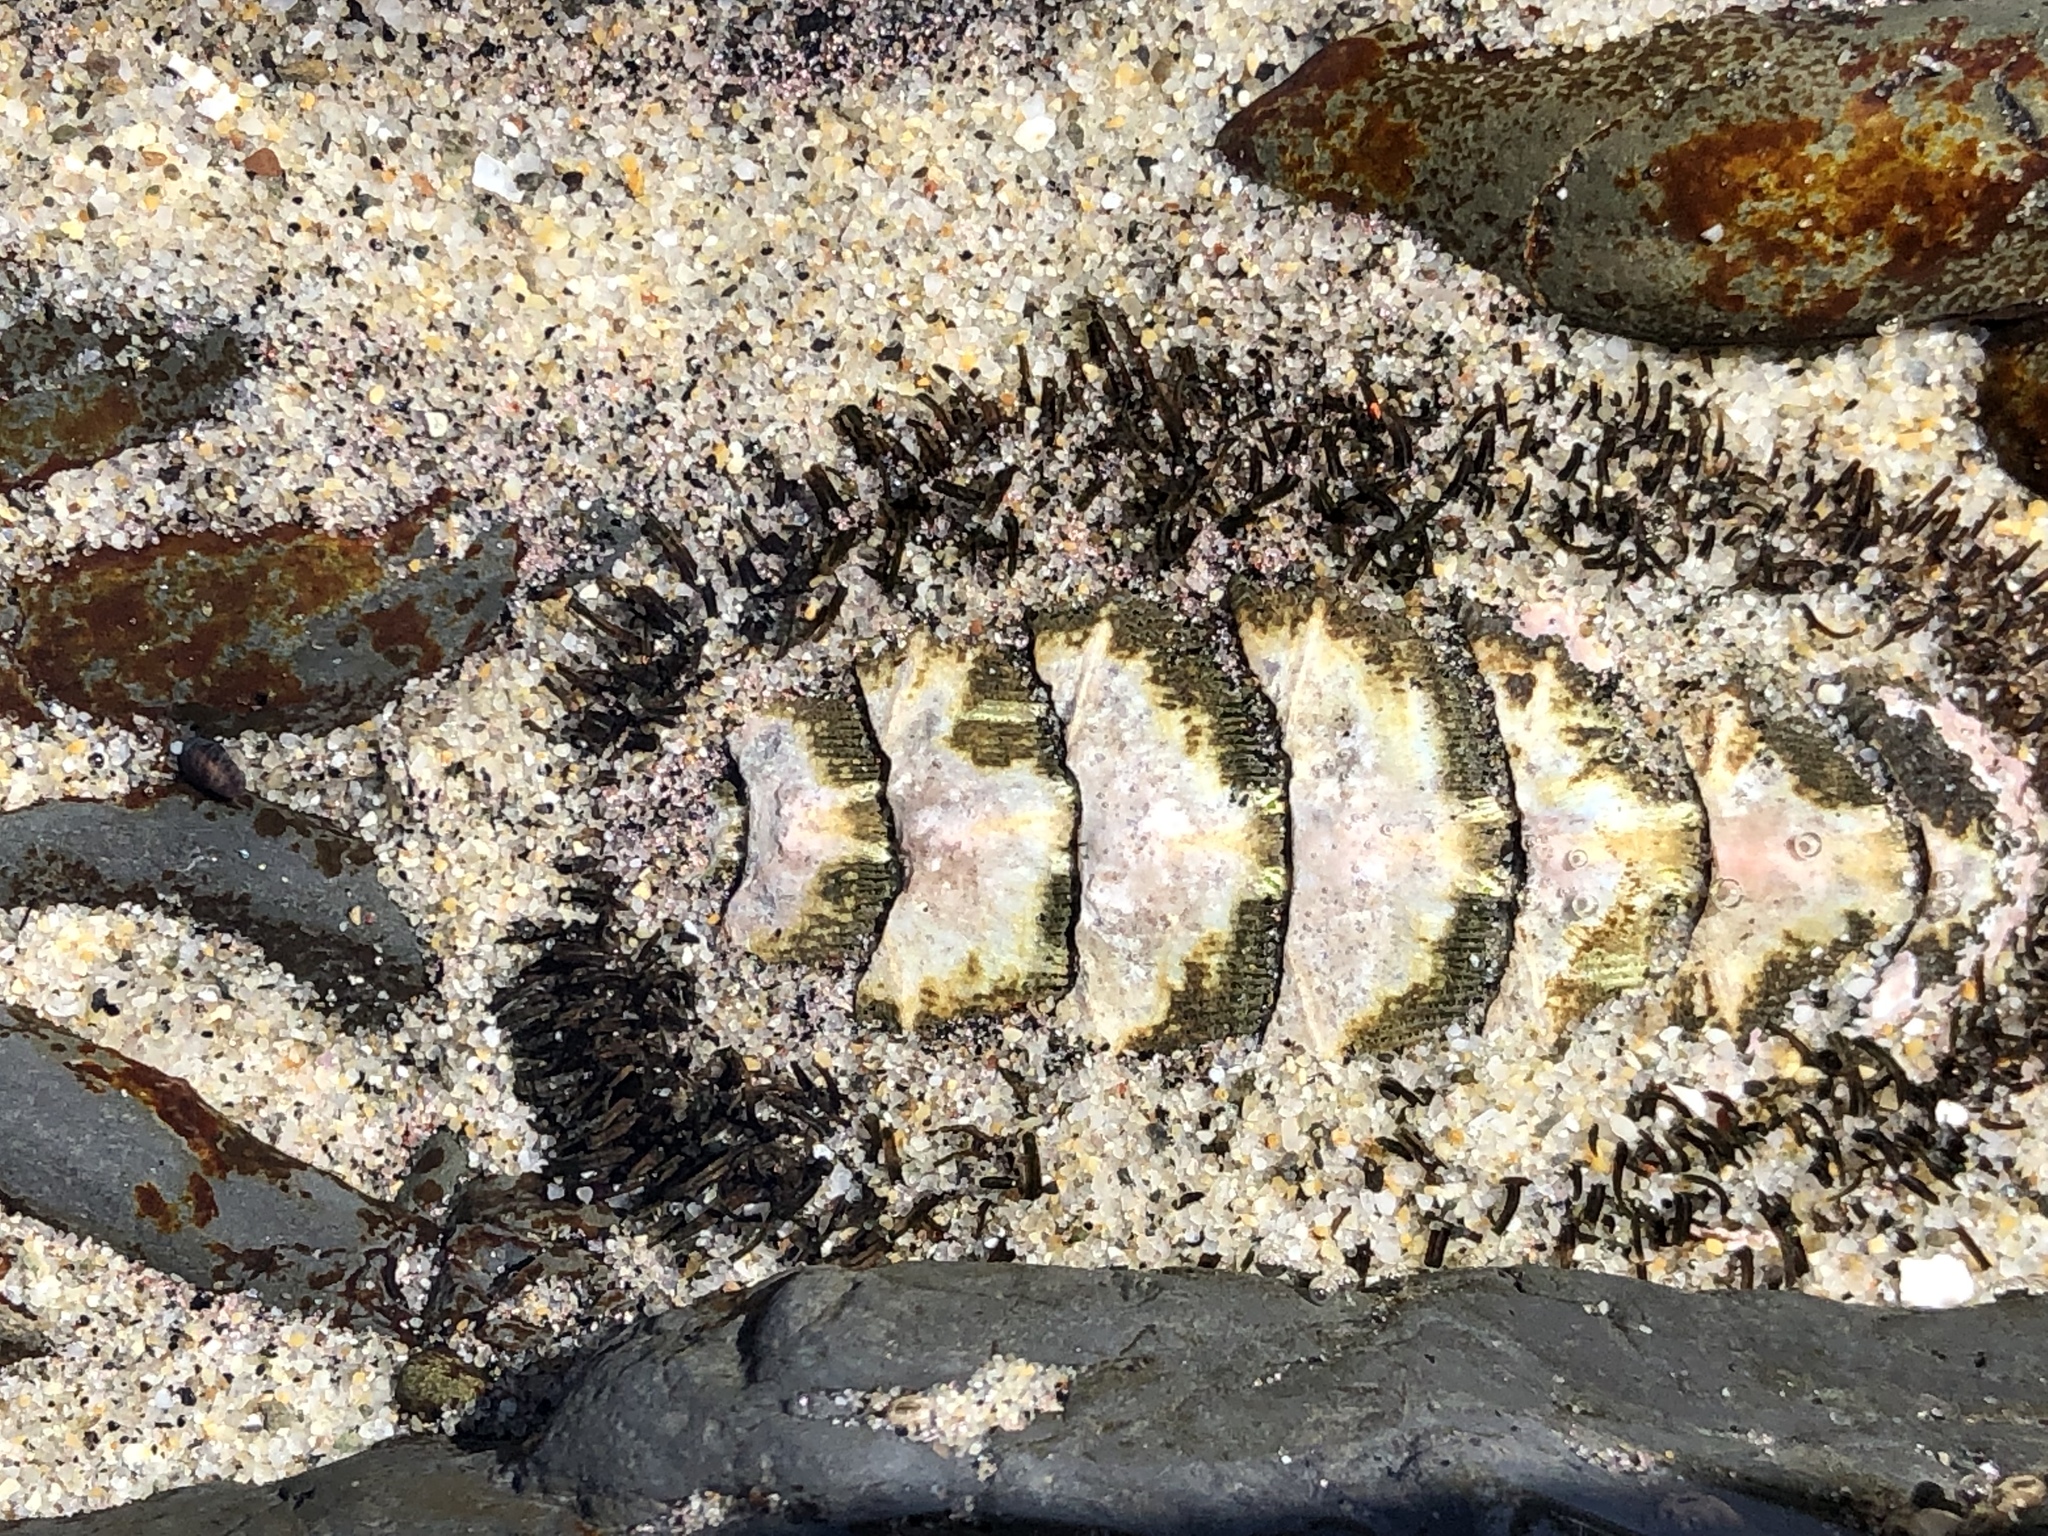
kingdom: Animalia
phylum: Mollusca
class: Polyplacophora
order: Chitonida
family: Mopaliidae
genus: Mopalia
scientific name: Mopalia muscosa
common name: Mossy chiton
